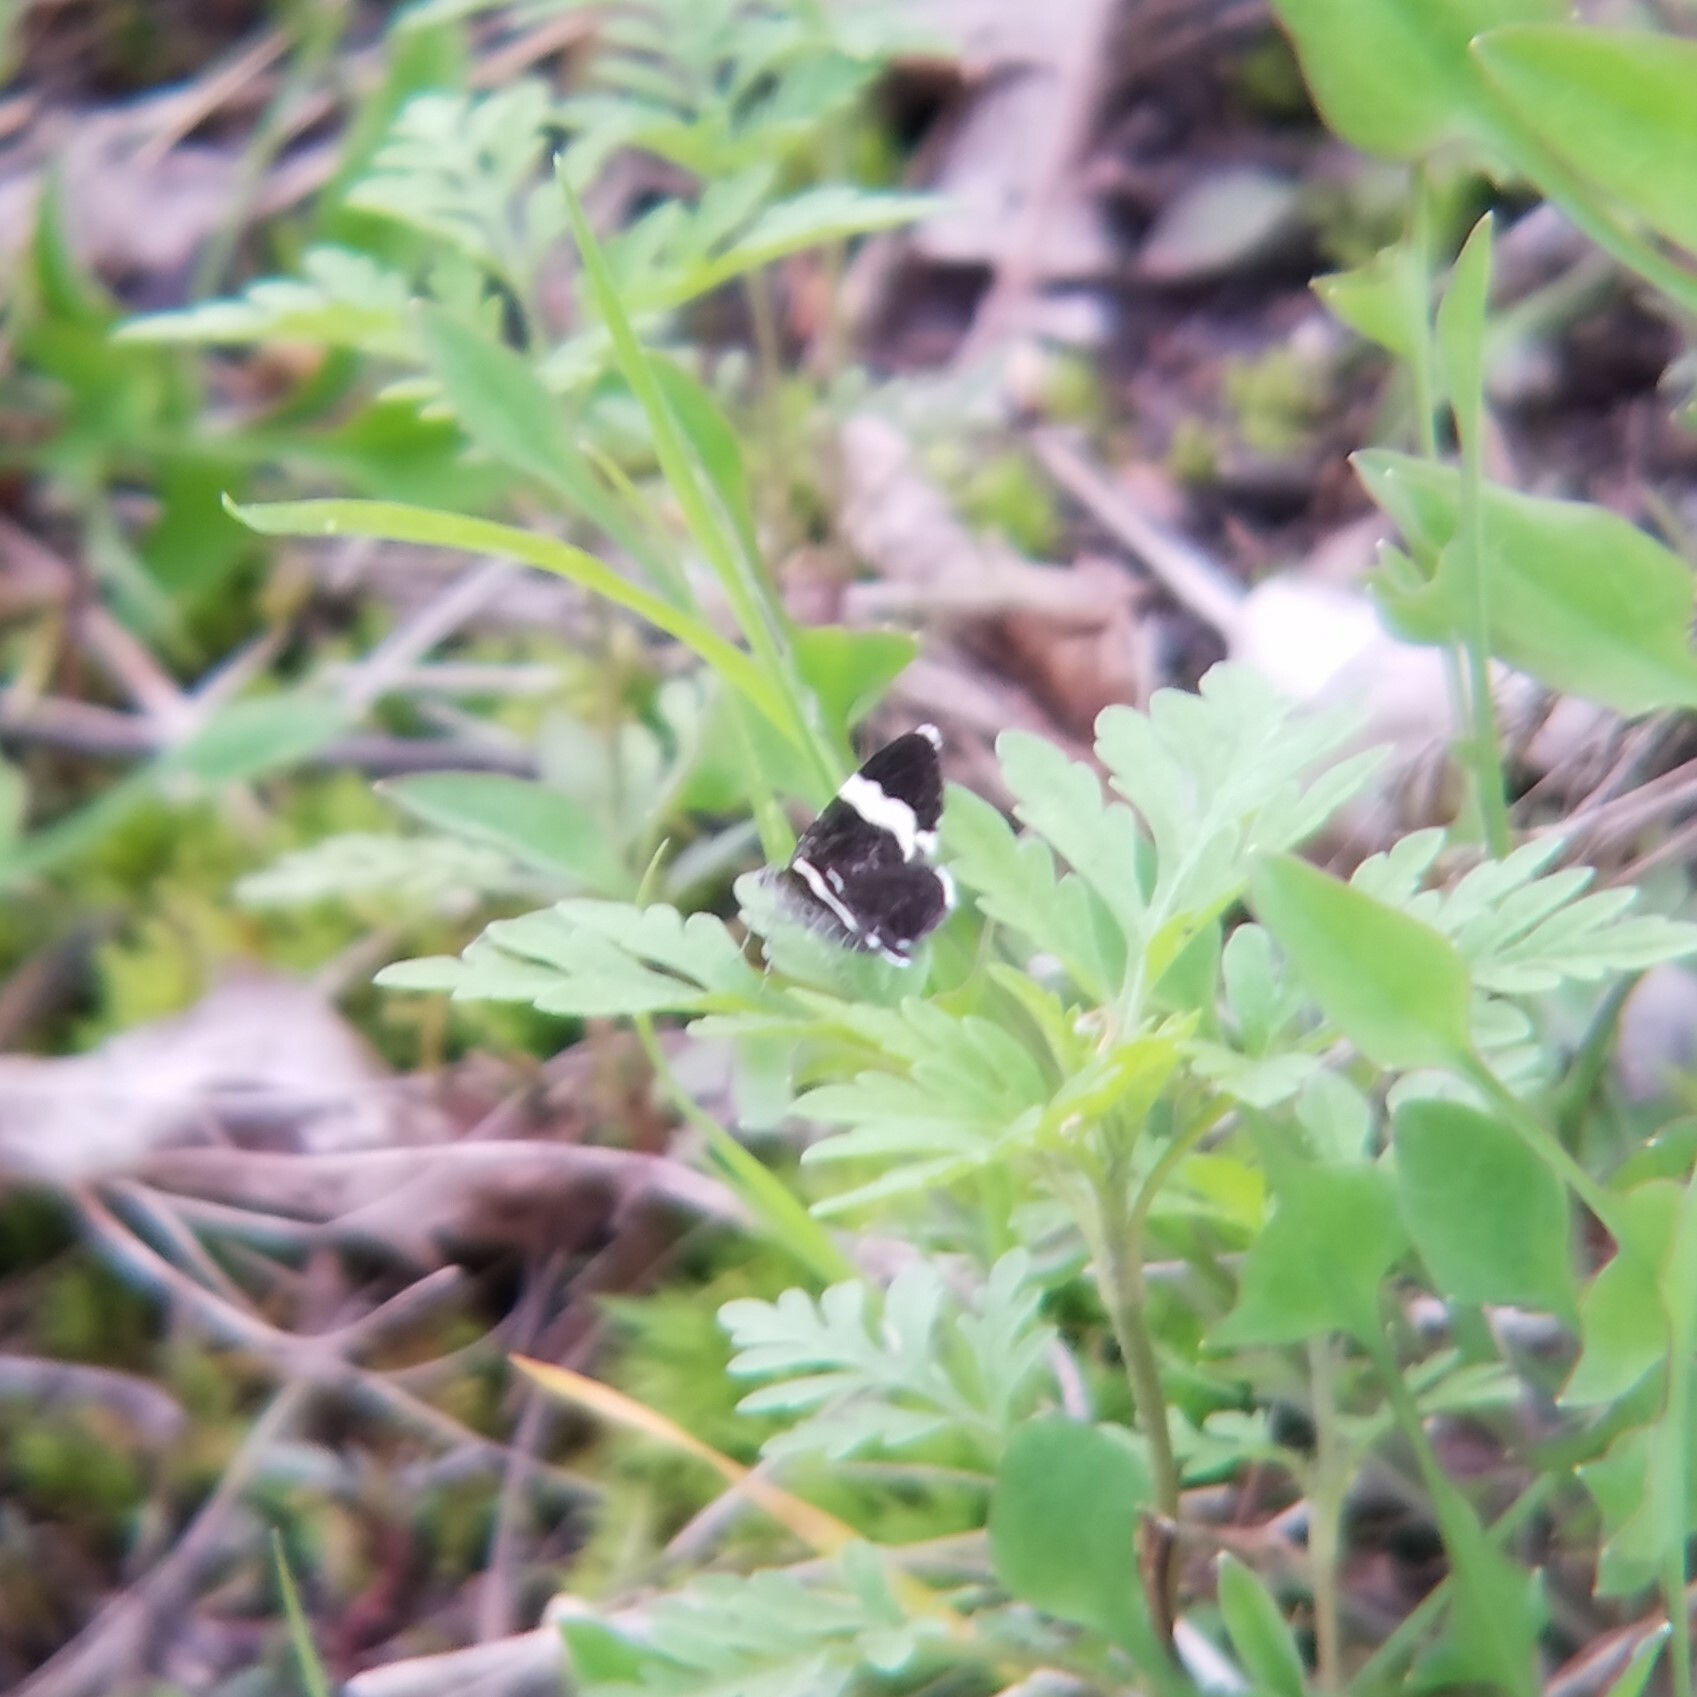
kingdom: Animalia
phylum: Arthropoda
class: Insecta
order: Lepidoptera
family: Geometridae
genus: Trichodezia
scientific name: Trichodezia albovittata
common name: White striped black
